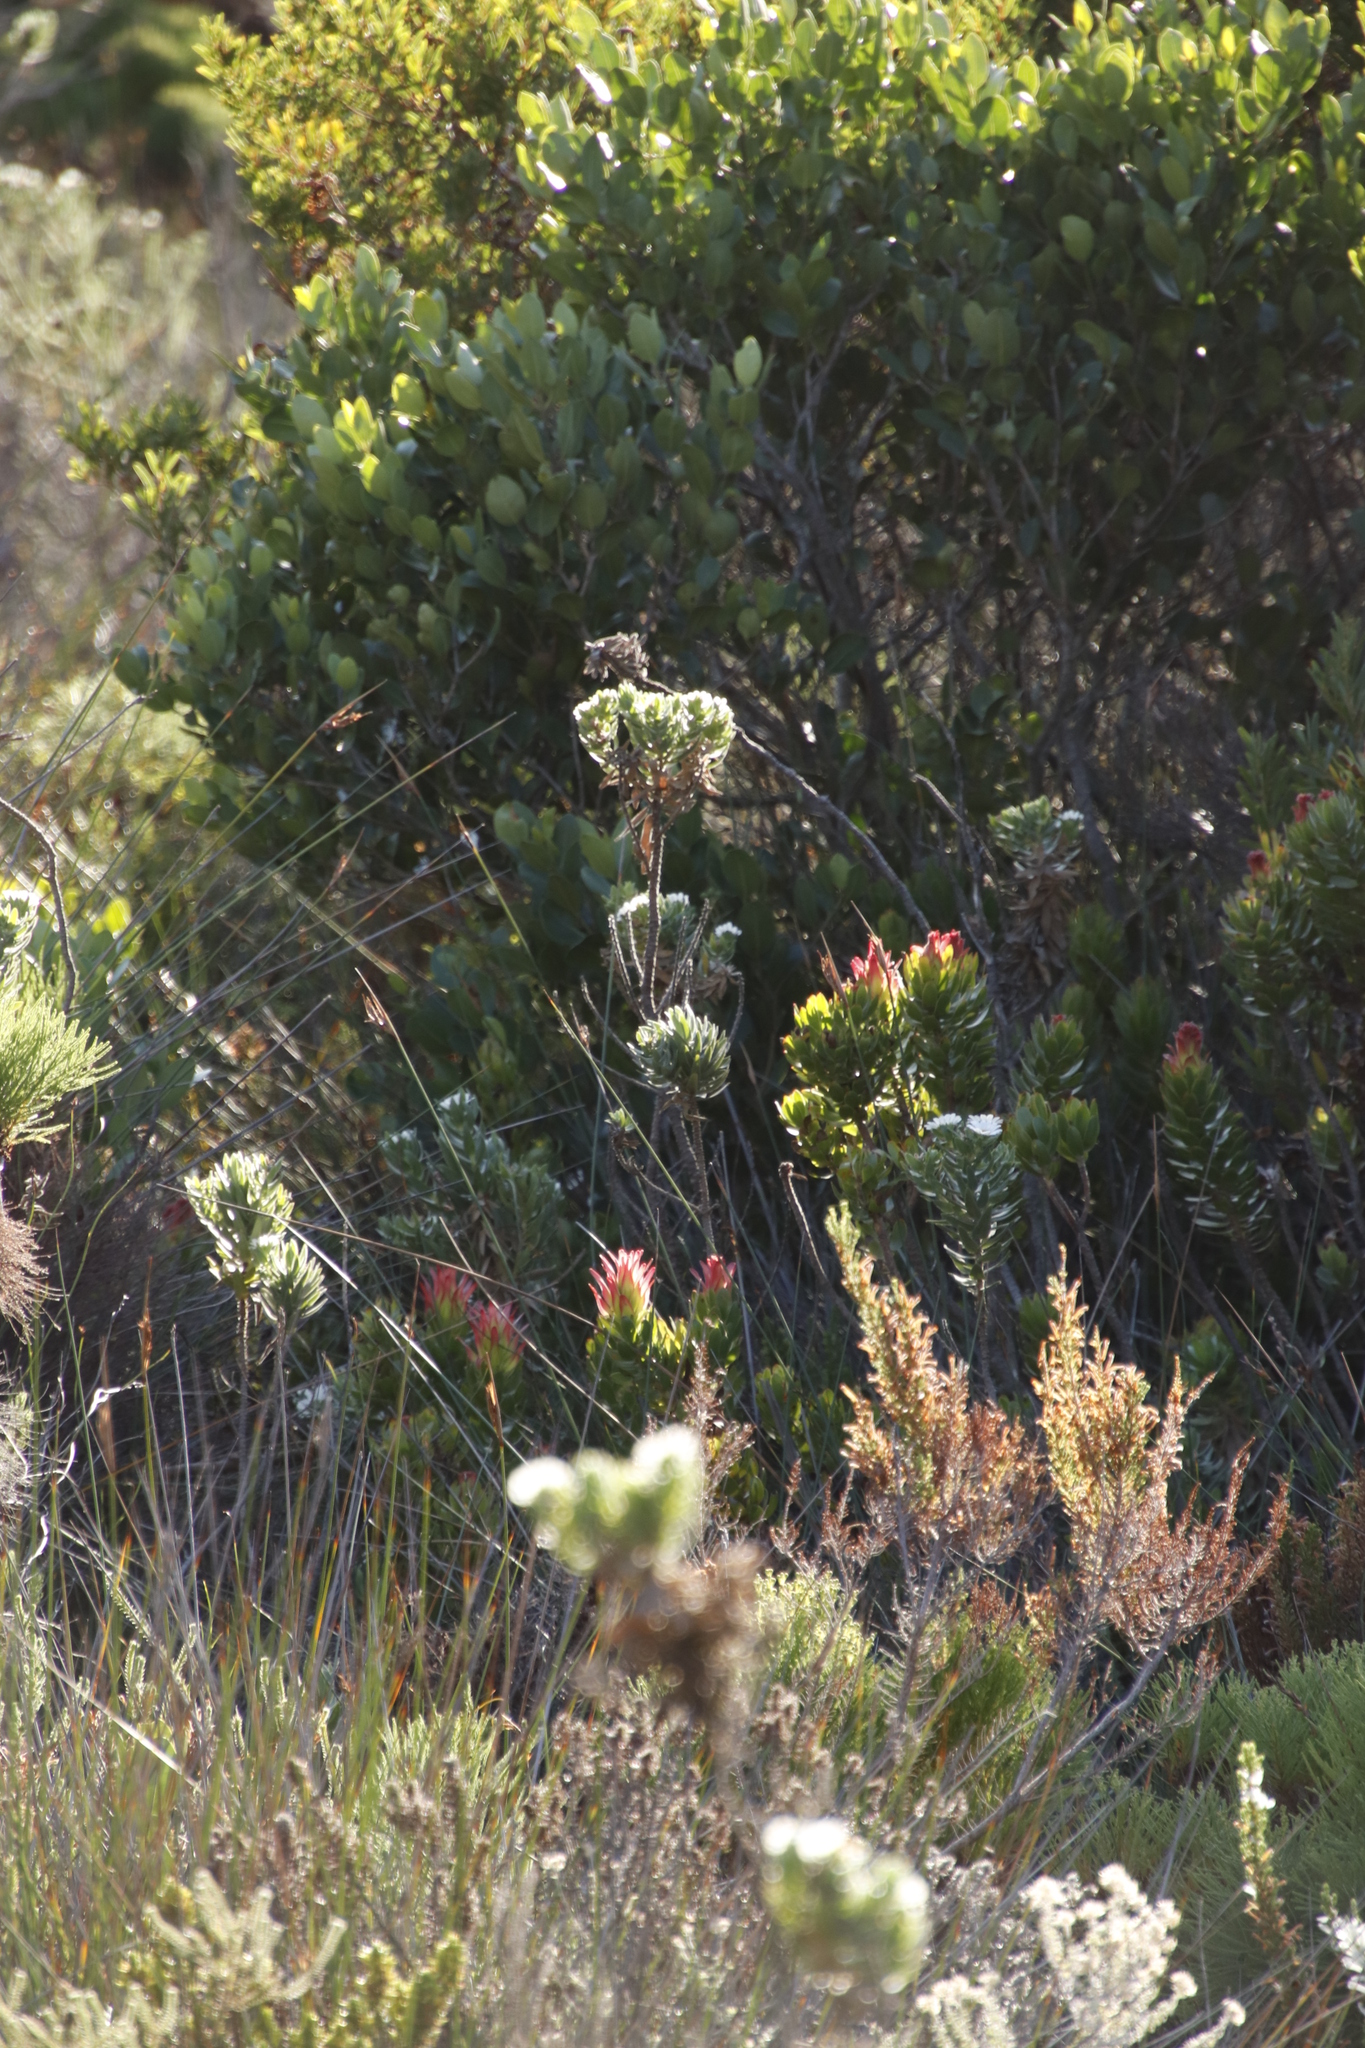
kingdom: Plantae
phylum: Tracheophyta
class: Magnoliopsida
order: Proteales
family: Proteaceae
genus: Mimetes
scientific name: Mimetes cucullatus
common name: Common pagoda
